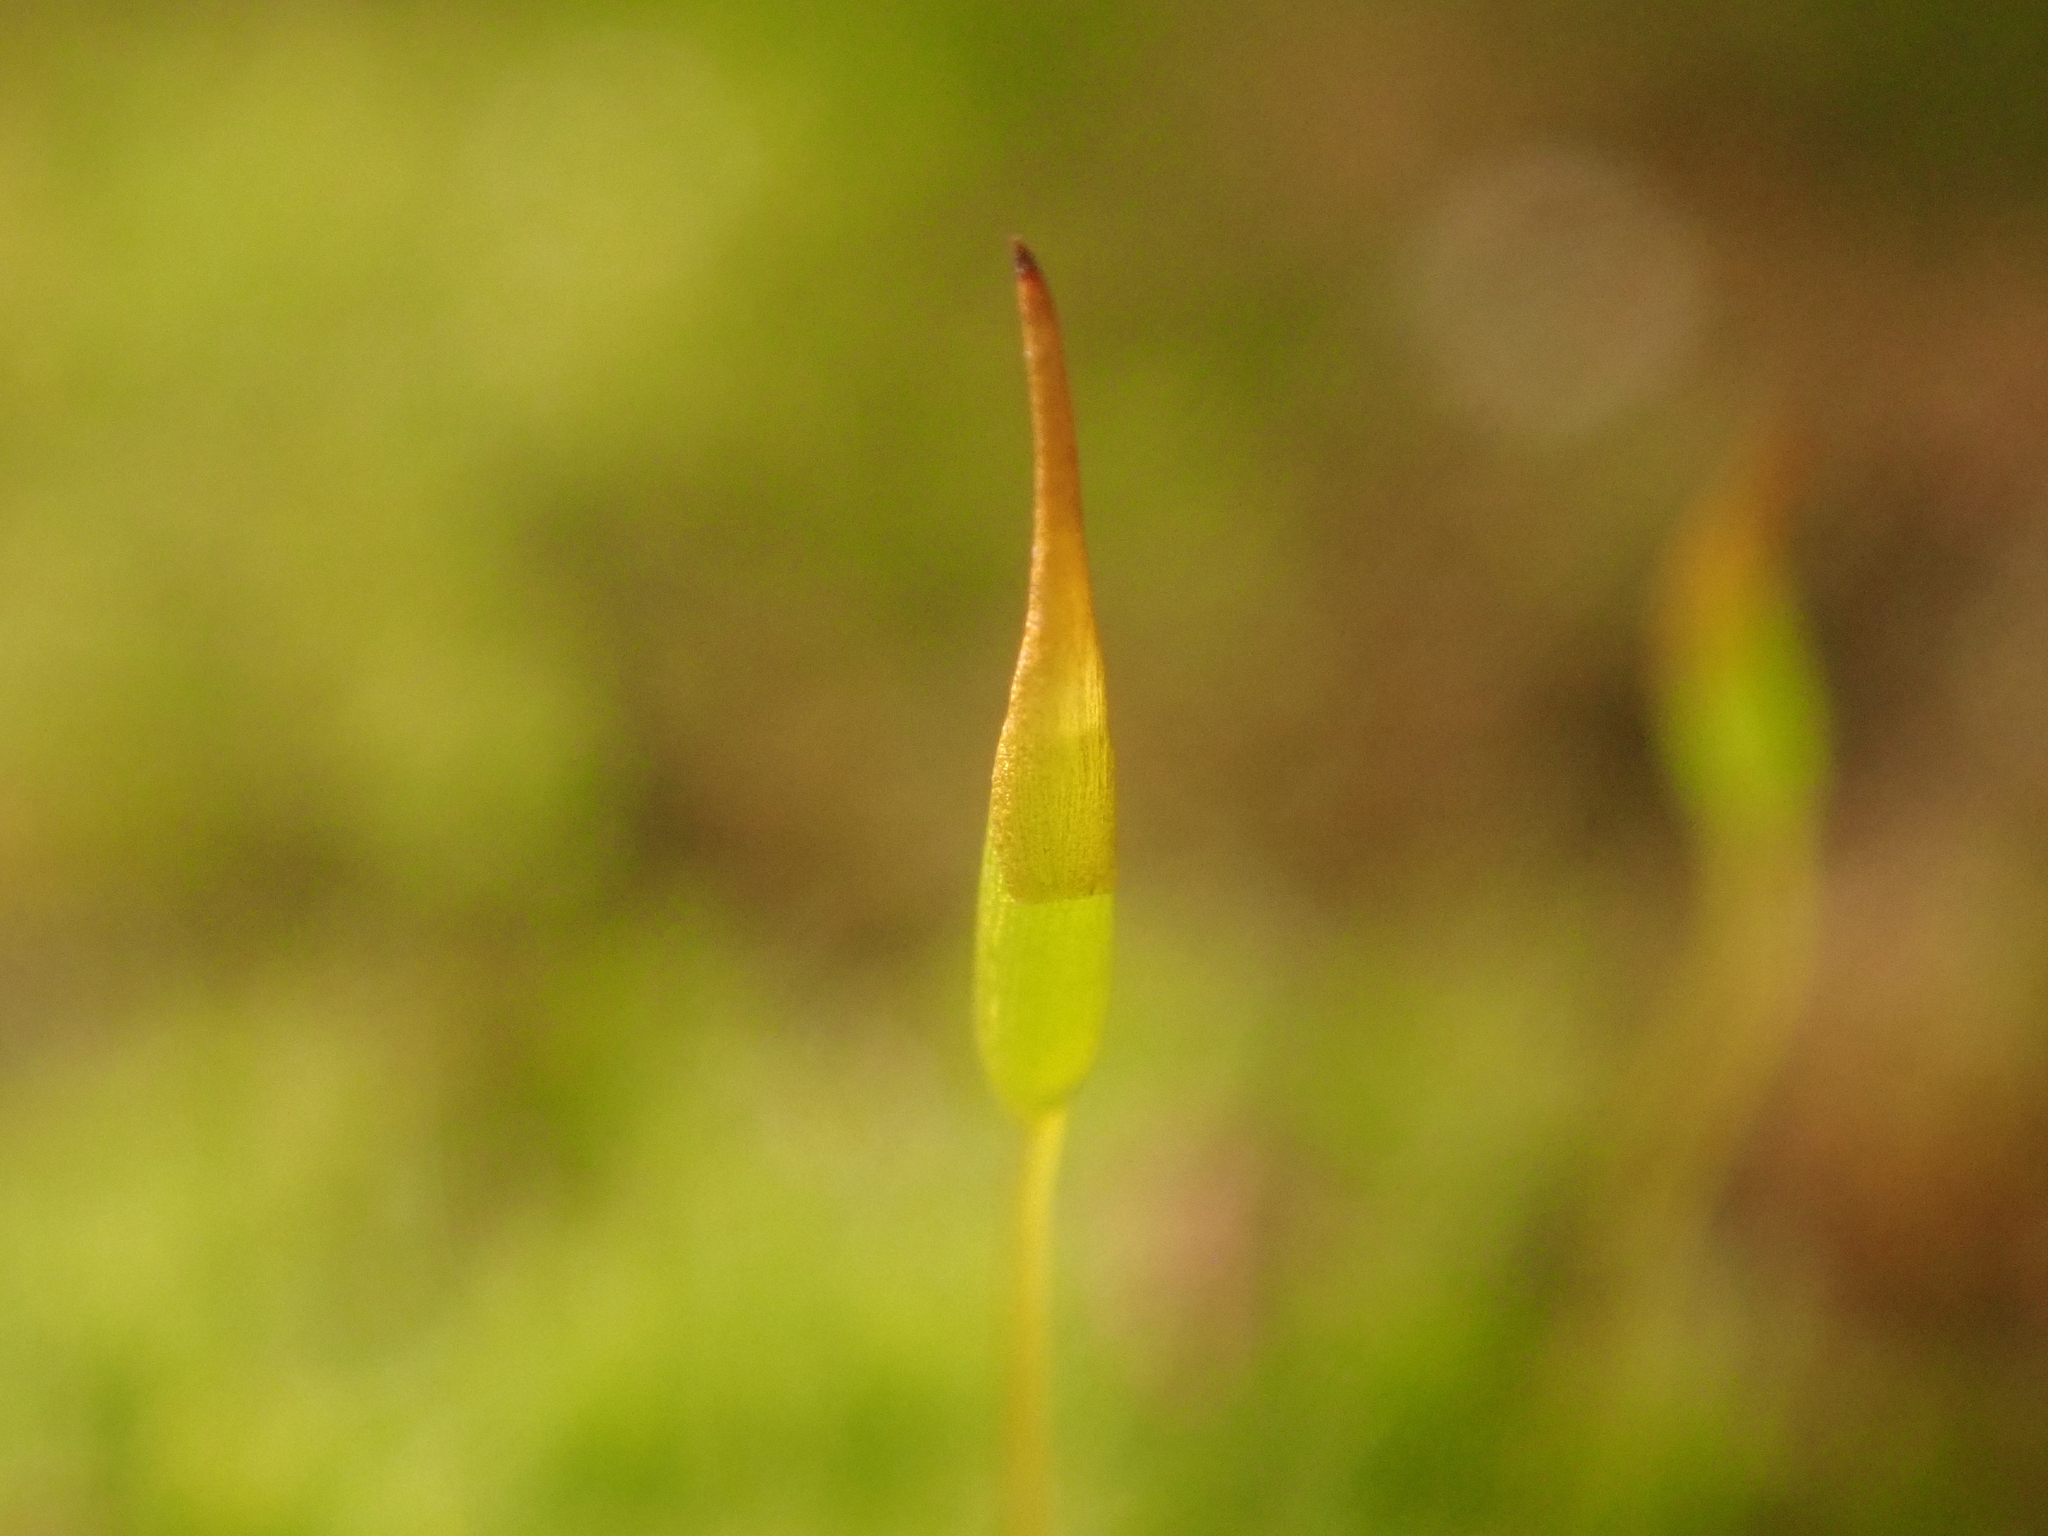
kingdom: Plantae
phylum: Bryophyta
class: Bryopsida
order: Pottiales
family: Pottiaceae
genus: Tortula
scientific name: Tortula muralis
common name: Wall screw-moss
